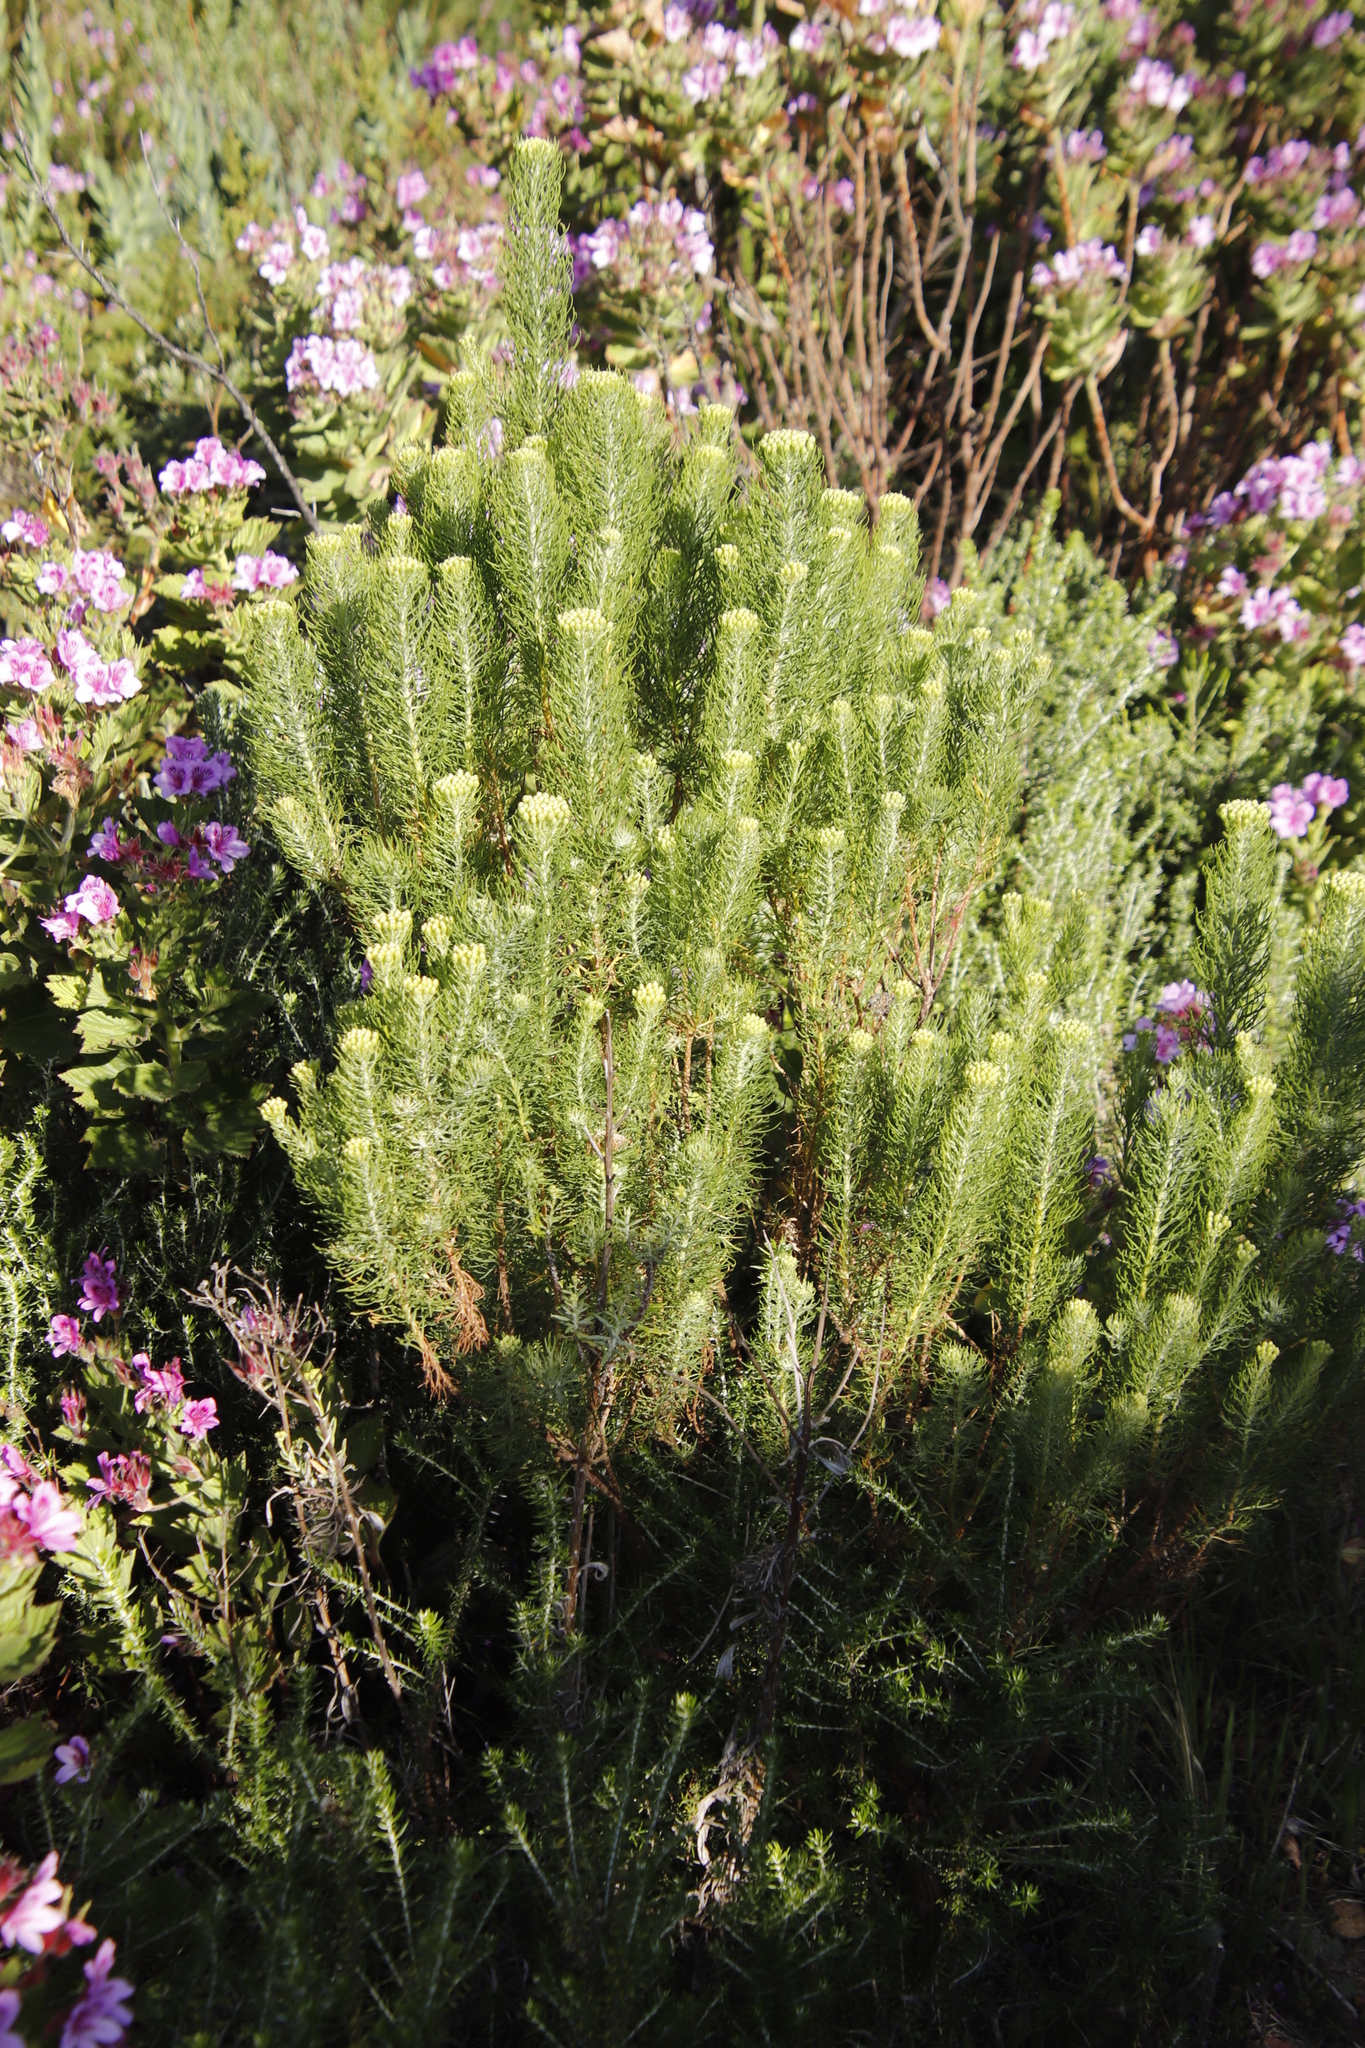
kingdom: Plantae
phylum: Tracheophyta
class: Magnoliopsida
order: Asterales
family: Asteraceae
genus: Hymenolepis
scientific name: Hymenolepis crithmifolia
